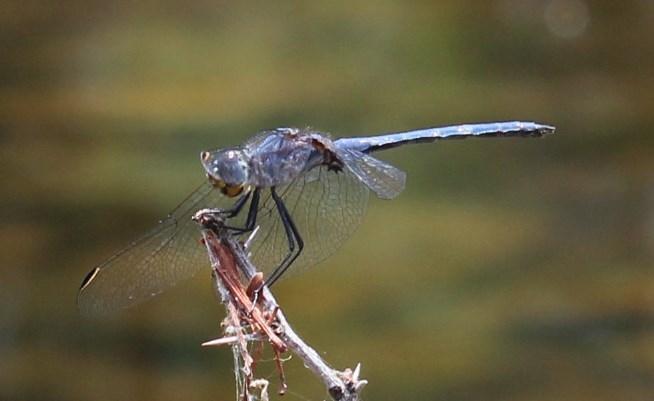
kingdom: Animalia
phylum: Arthropoda
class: Insecta
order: Odonata
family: Libellulidae
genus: Trithemis
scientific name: Trithemis furva
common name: Dark dropwing
